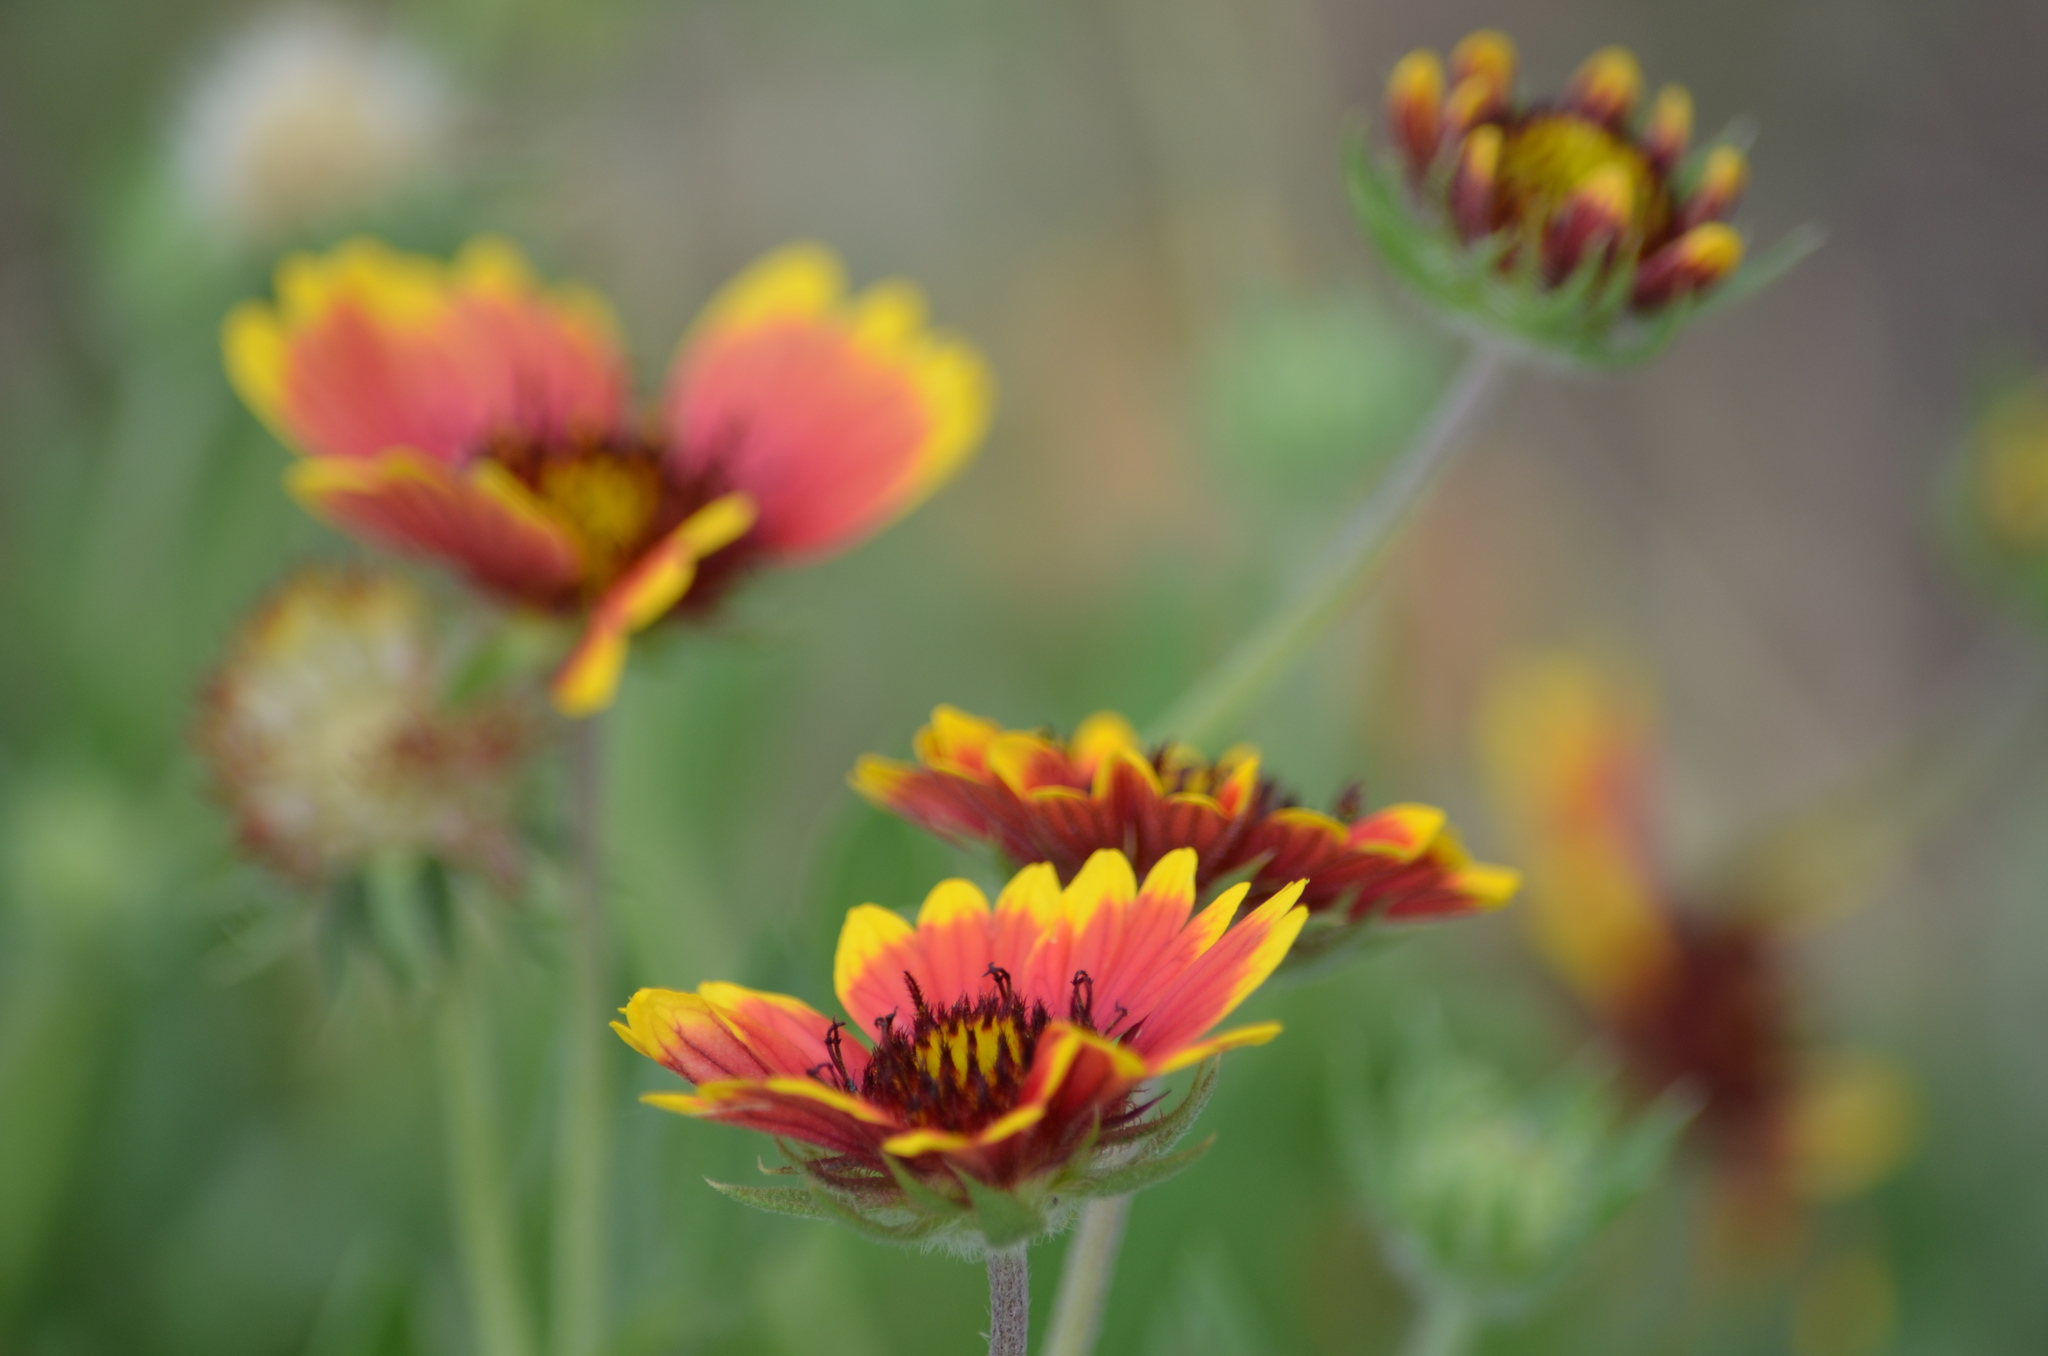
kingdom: Plantae
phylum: Tracheophyta
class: Magnoliopsida
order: Asterales
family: Asteraceae
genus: Gaillardia
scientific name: Gaillardia pulchella
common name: Firewheel
